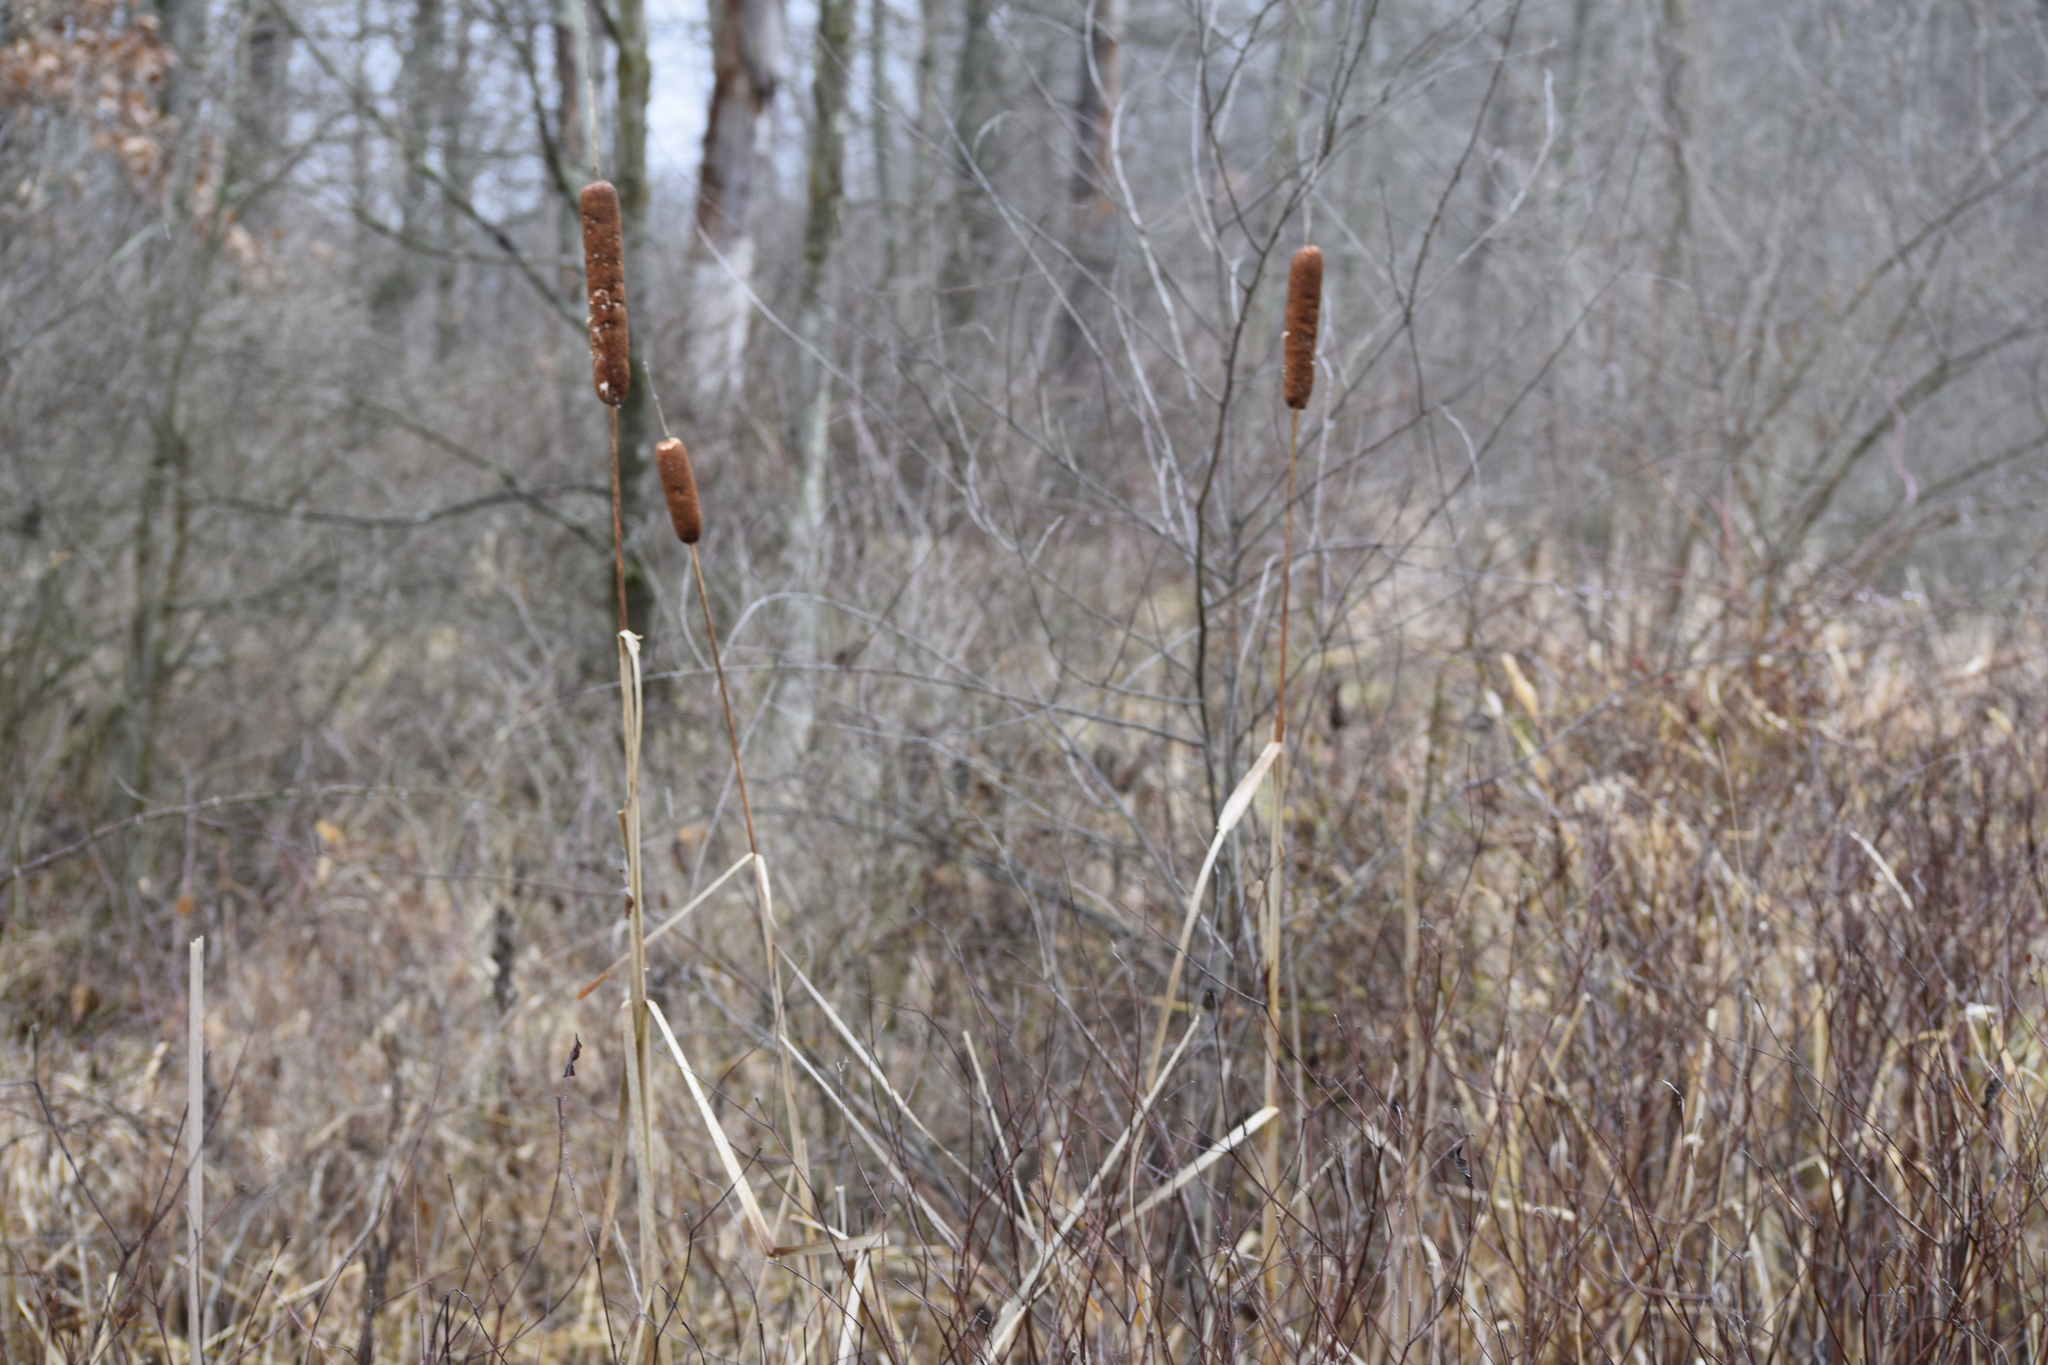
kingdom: Plantae
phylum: Tracheophyta
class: Liliopsida
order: Poales
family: Typhaceae
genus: Typha
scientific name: Typha latifolia
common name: Broadleaf cattail
